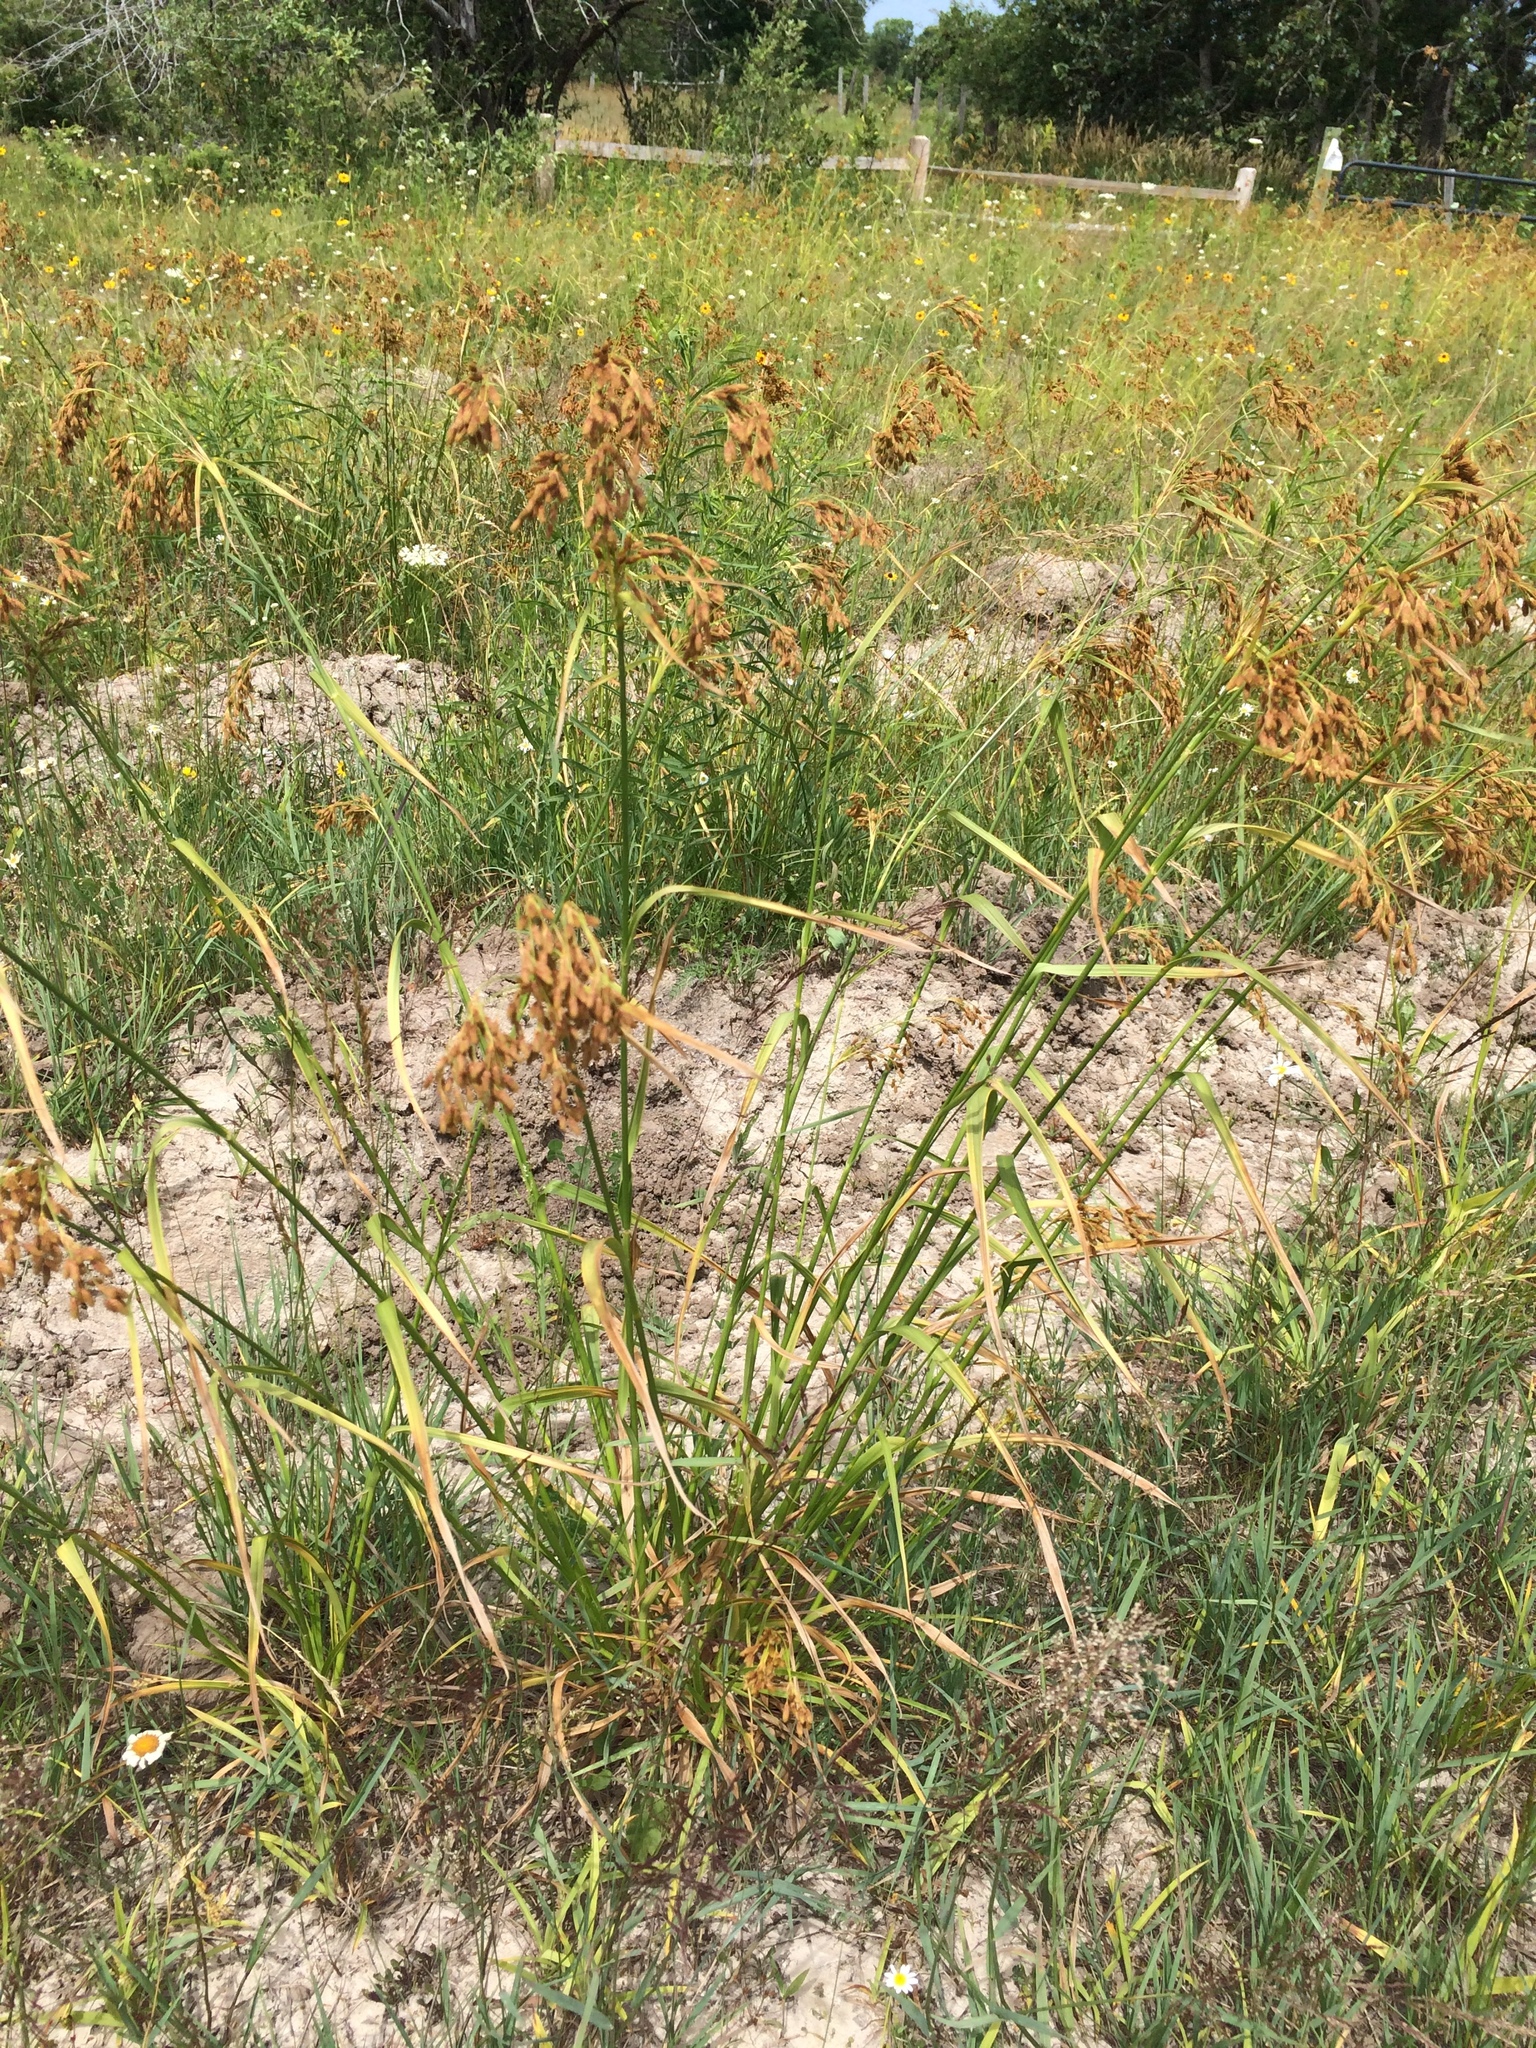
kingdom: Plantae
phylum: Tracheophyta
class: Liliopsida
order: Poales
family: Cyperaceae
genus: Scirpus
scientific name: Scirpus pendulus
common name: Nodding bulrush
